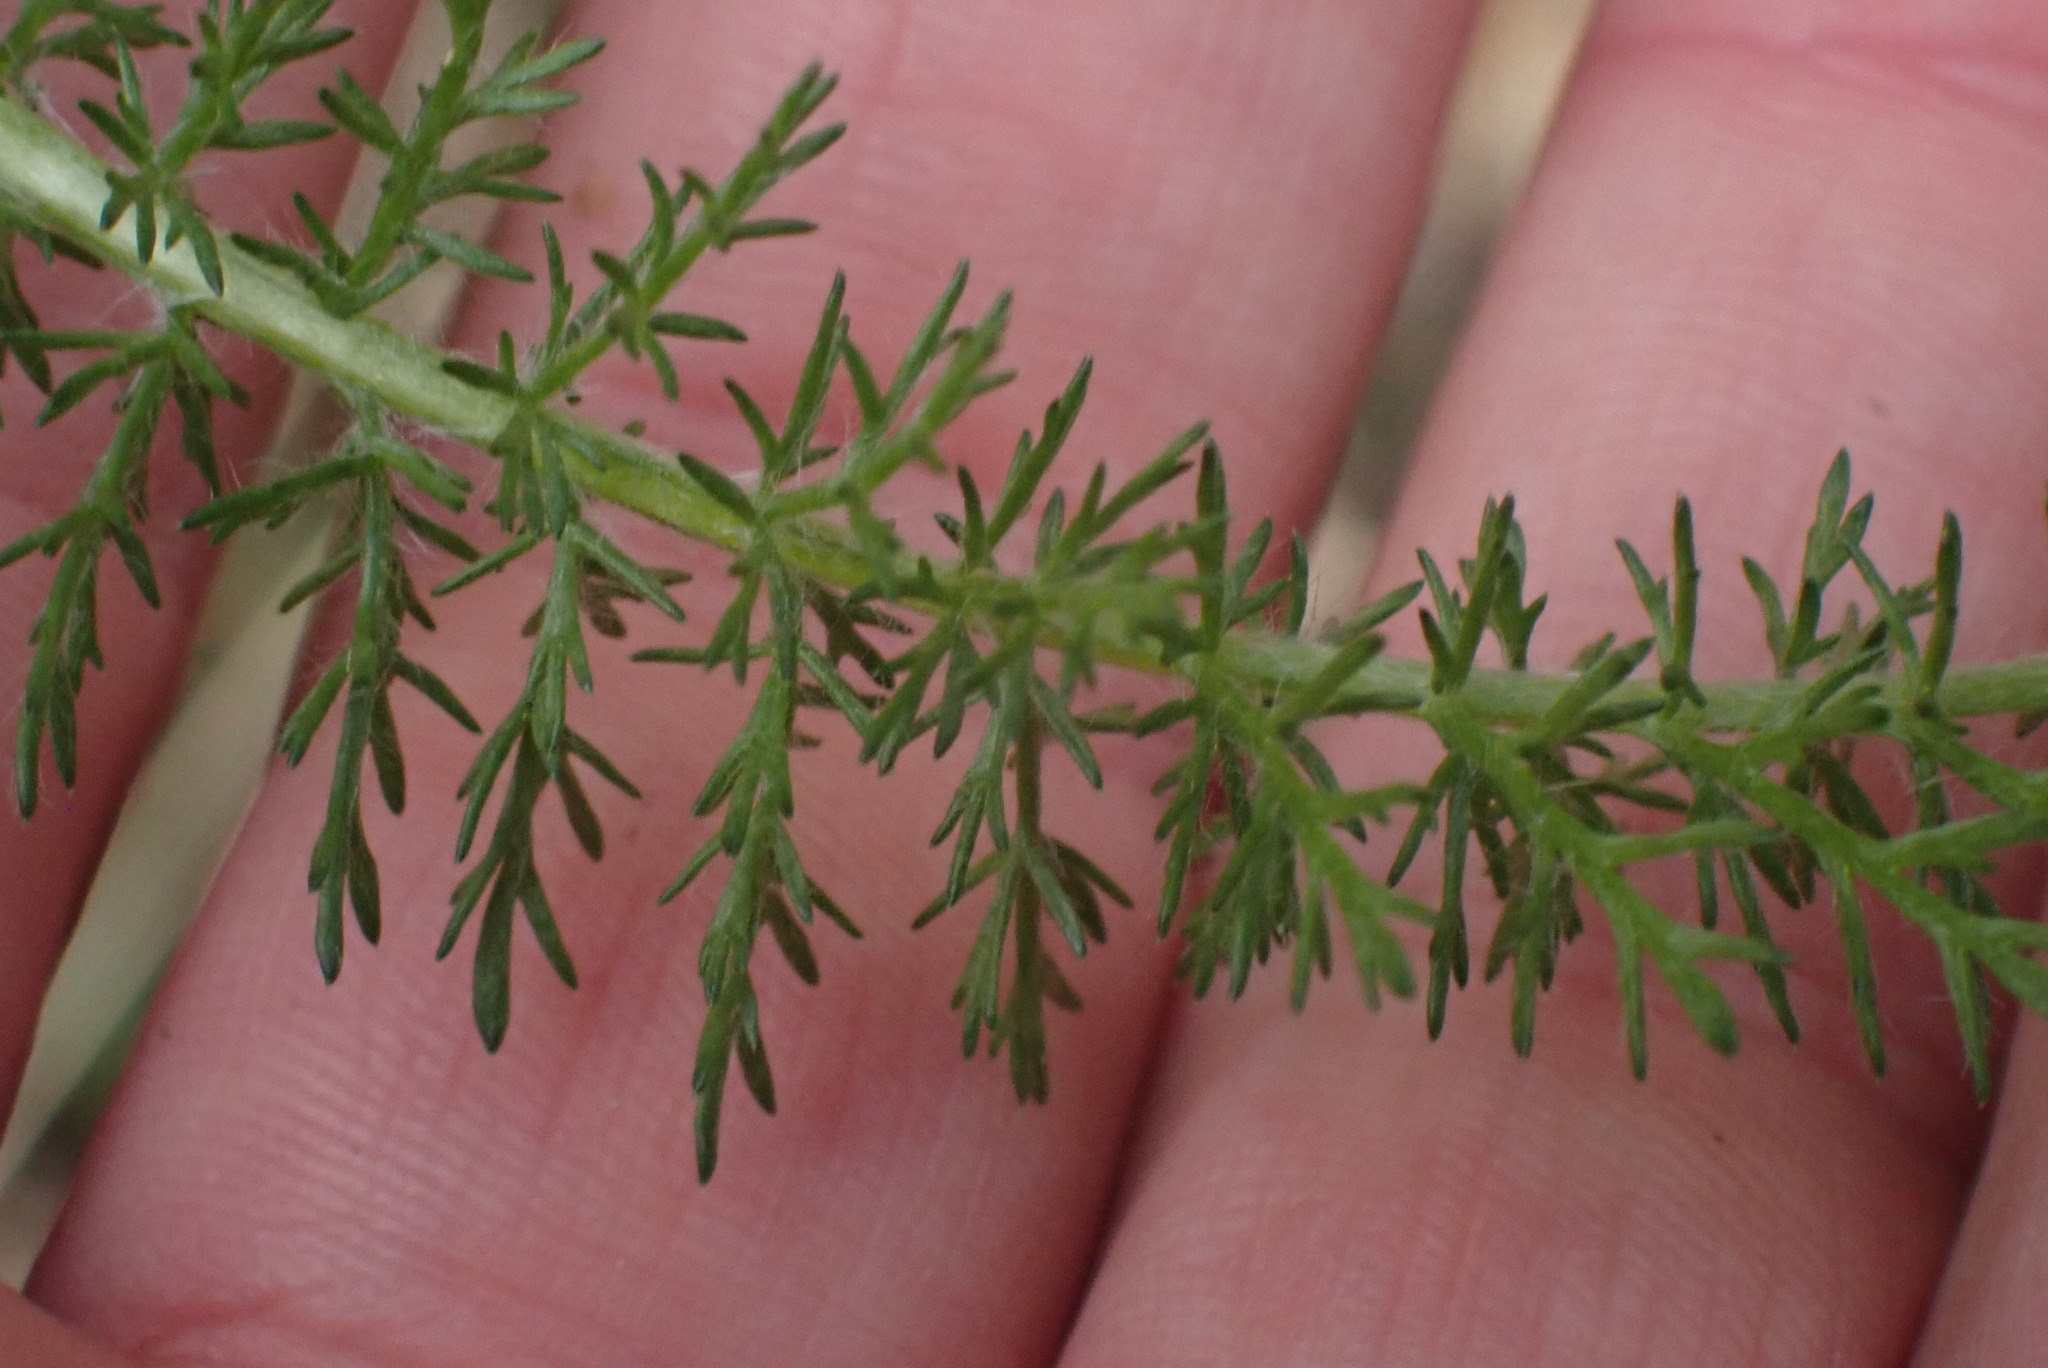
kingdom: Plantae
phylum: Tracheophyta
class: Magnoliopsida
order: Asterales
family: Asteraceae
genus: Achillea
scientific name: Achillea millefolium
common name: Yarrow
